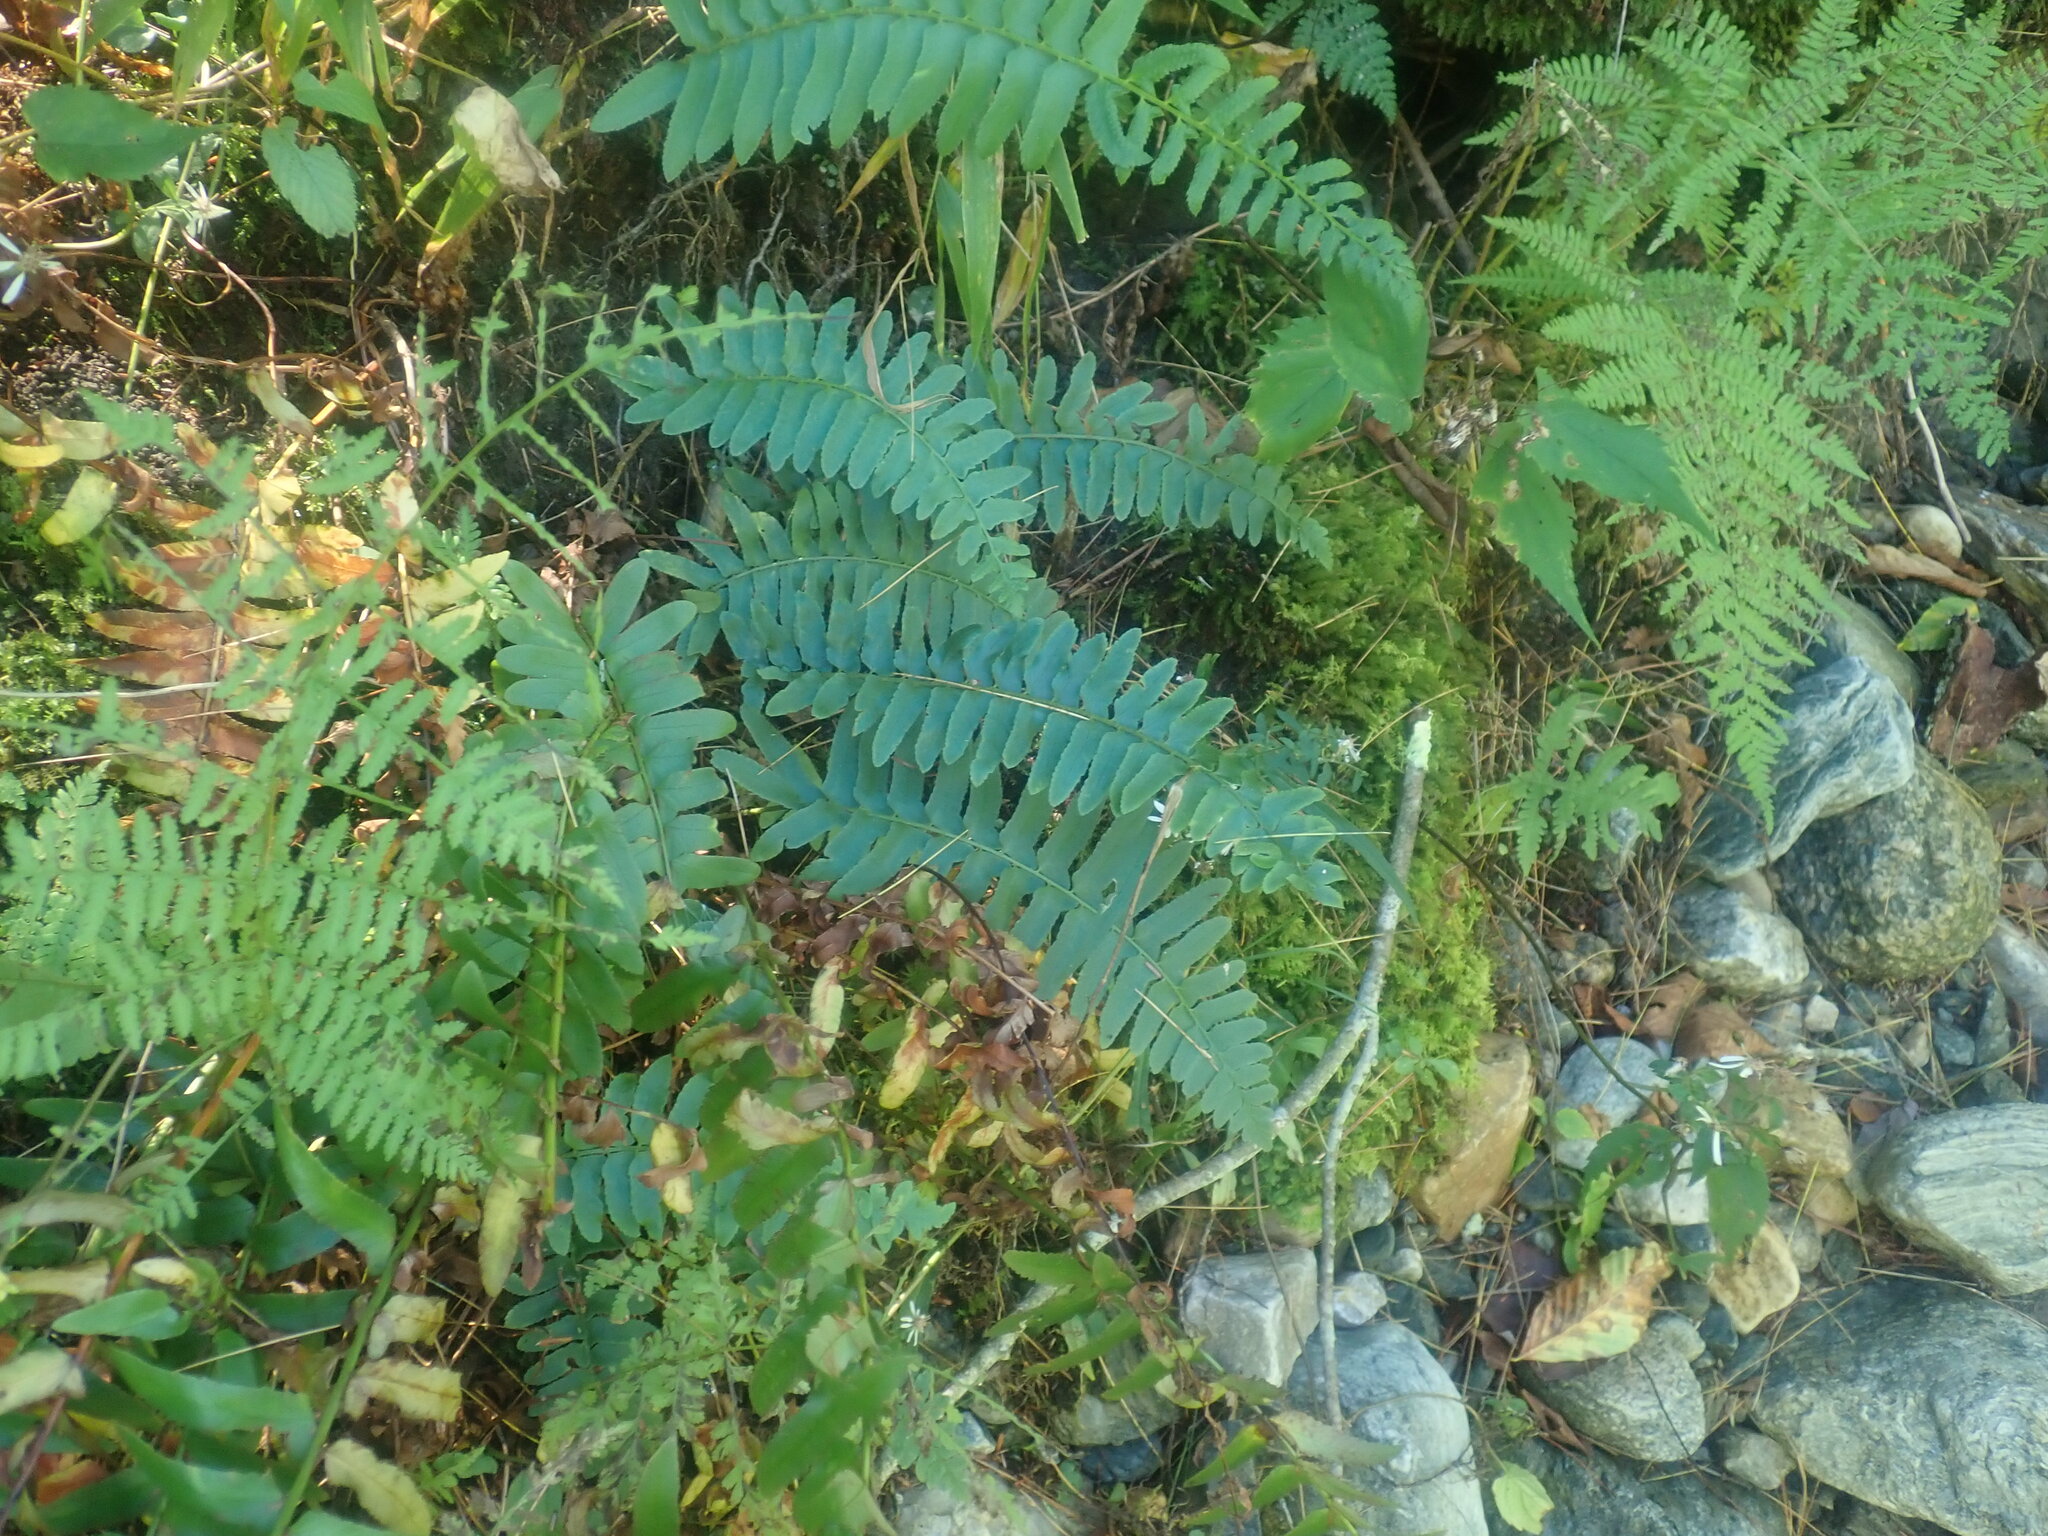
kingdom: Plantae
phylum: Tracheophyta
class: Polypodiopsida
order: Polypodiales
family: Dryopteridaceae
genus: Polystichum
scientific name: Polystichum acrostichoides
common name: Christmas fern
